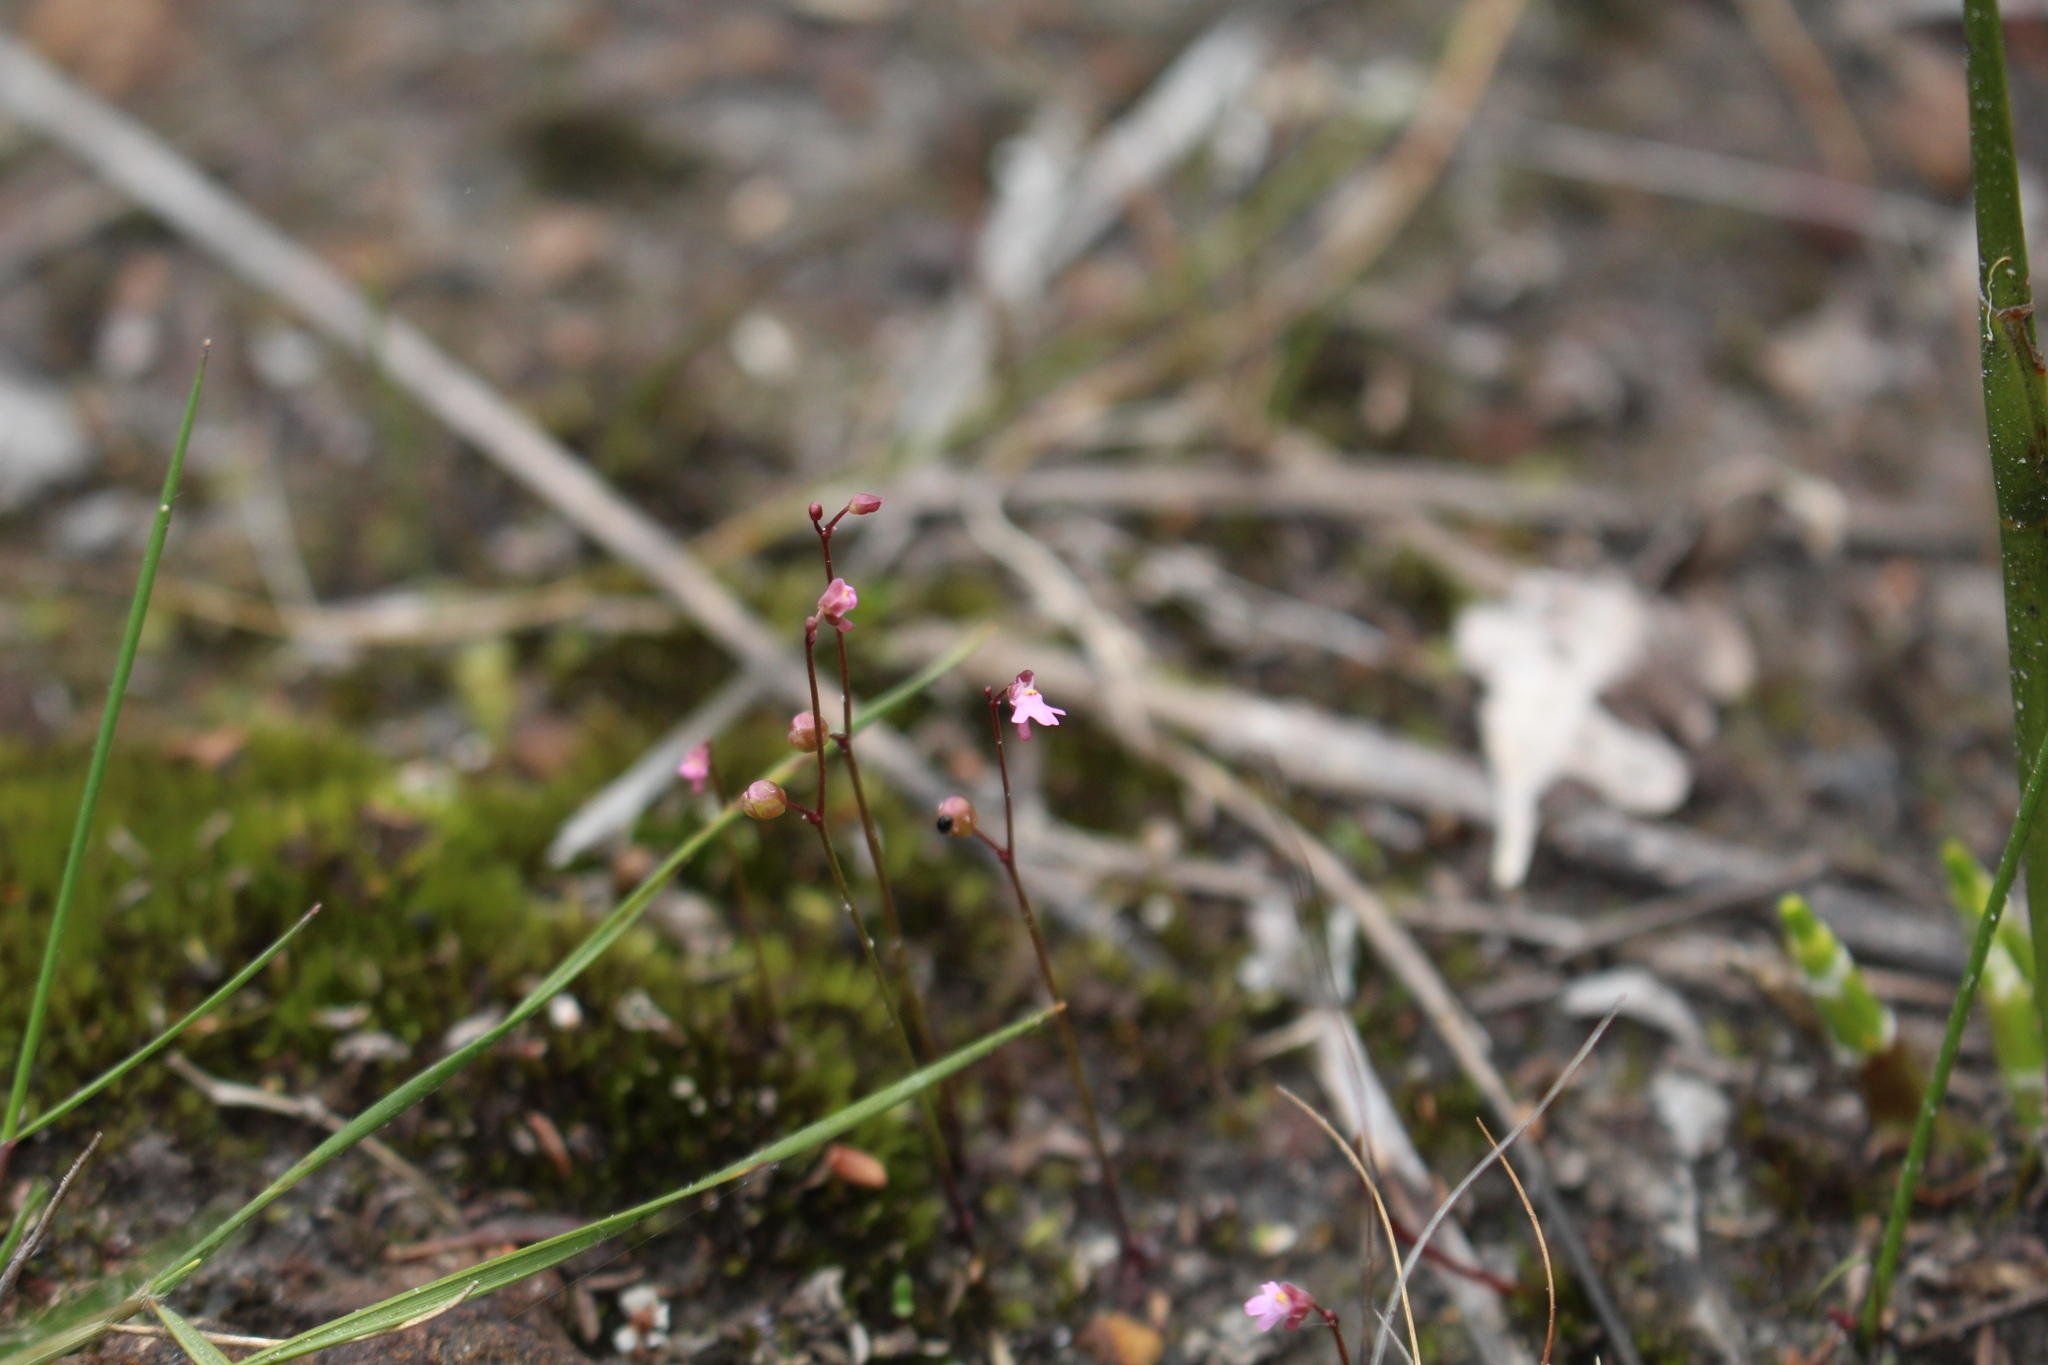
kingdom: Plantae
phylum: Tracheophyta
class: Magnoliopsida
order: Lamiales
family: Lentibulariaceae
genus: Utricularia
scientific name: Utricularia tenella
